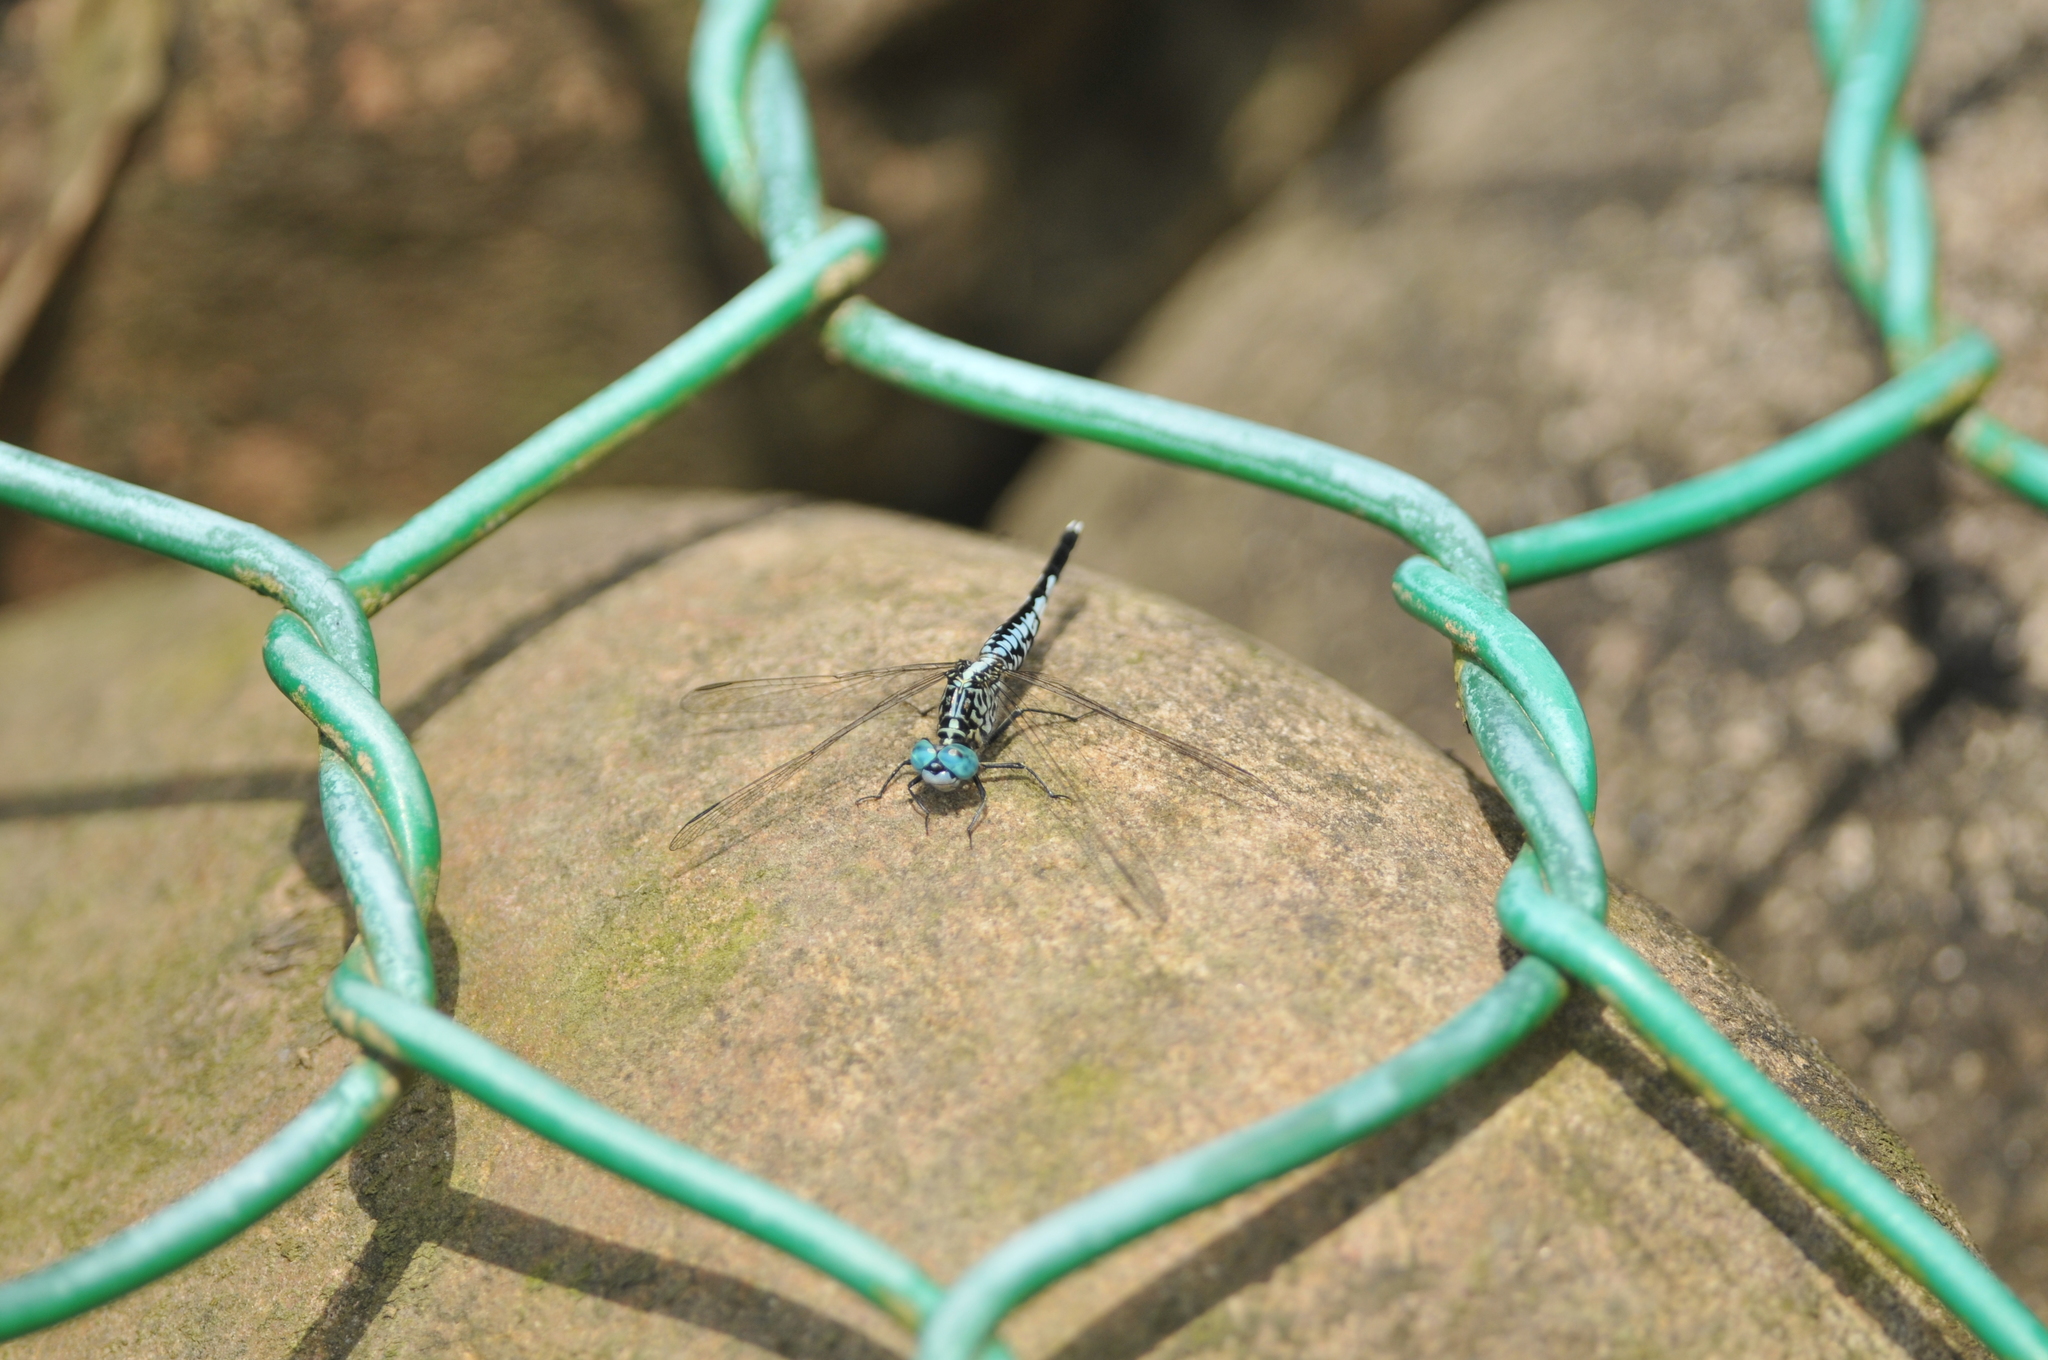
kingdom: Animalia
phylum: Arthropoda
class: Insecta
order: Odonata
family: Libellulidae
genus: Acisoma
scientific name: Acisoma panorpoides
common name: Asian pintail
